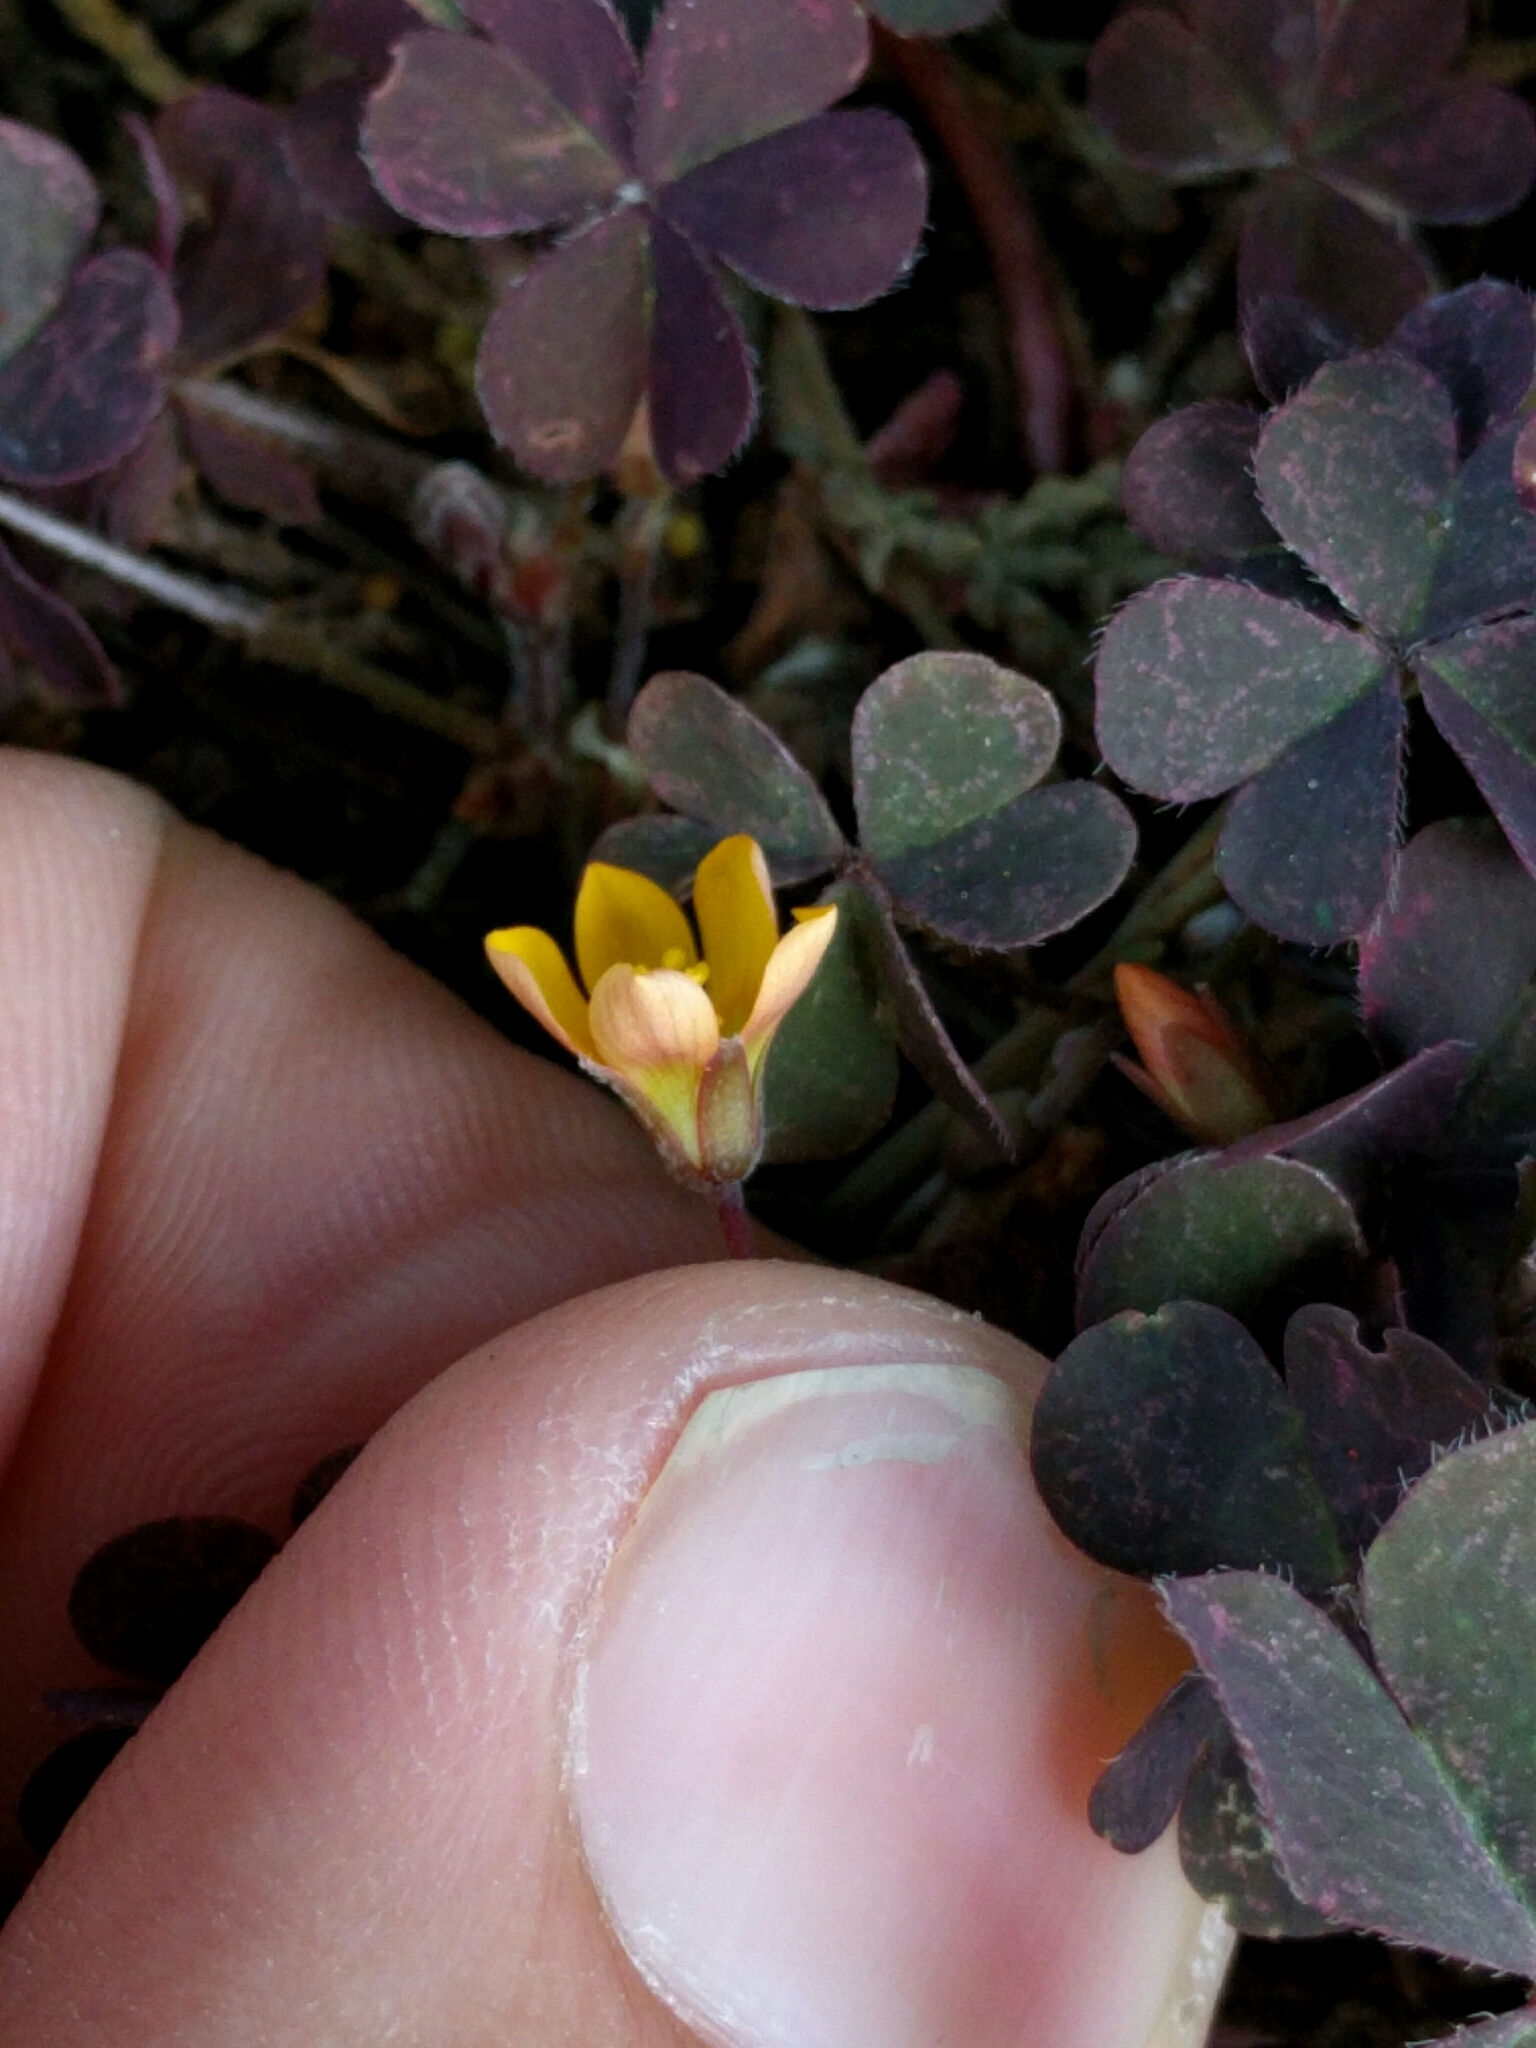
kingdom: Plantae
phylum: Tracheophyta
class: Magnoliopsida
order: Oxalidales
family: Oxalidaceae
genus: Oxalis
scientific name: Oxalis corniculata
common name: Procumbent yellow-sorrel
